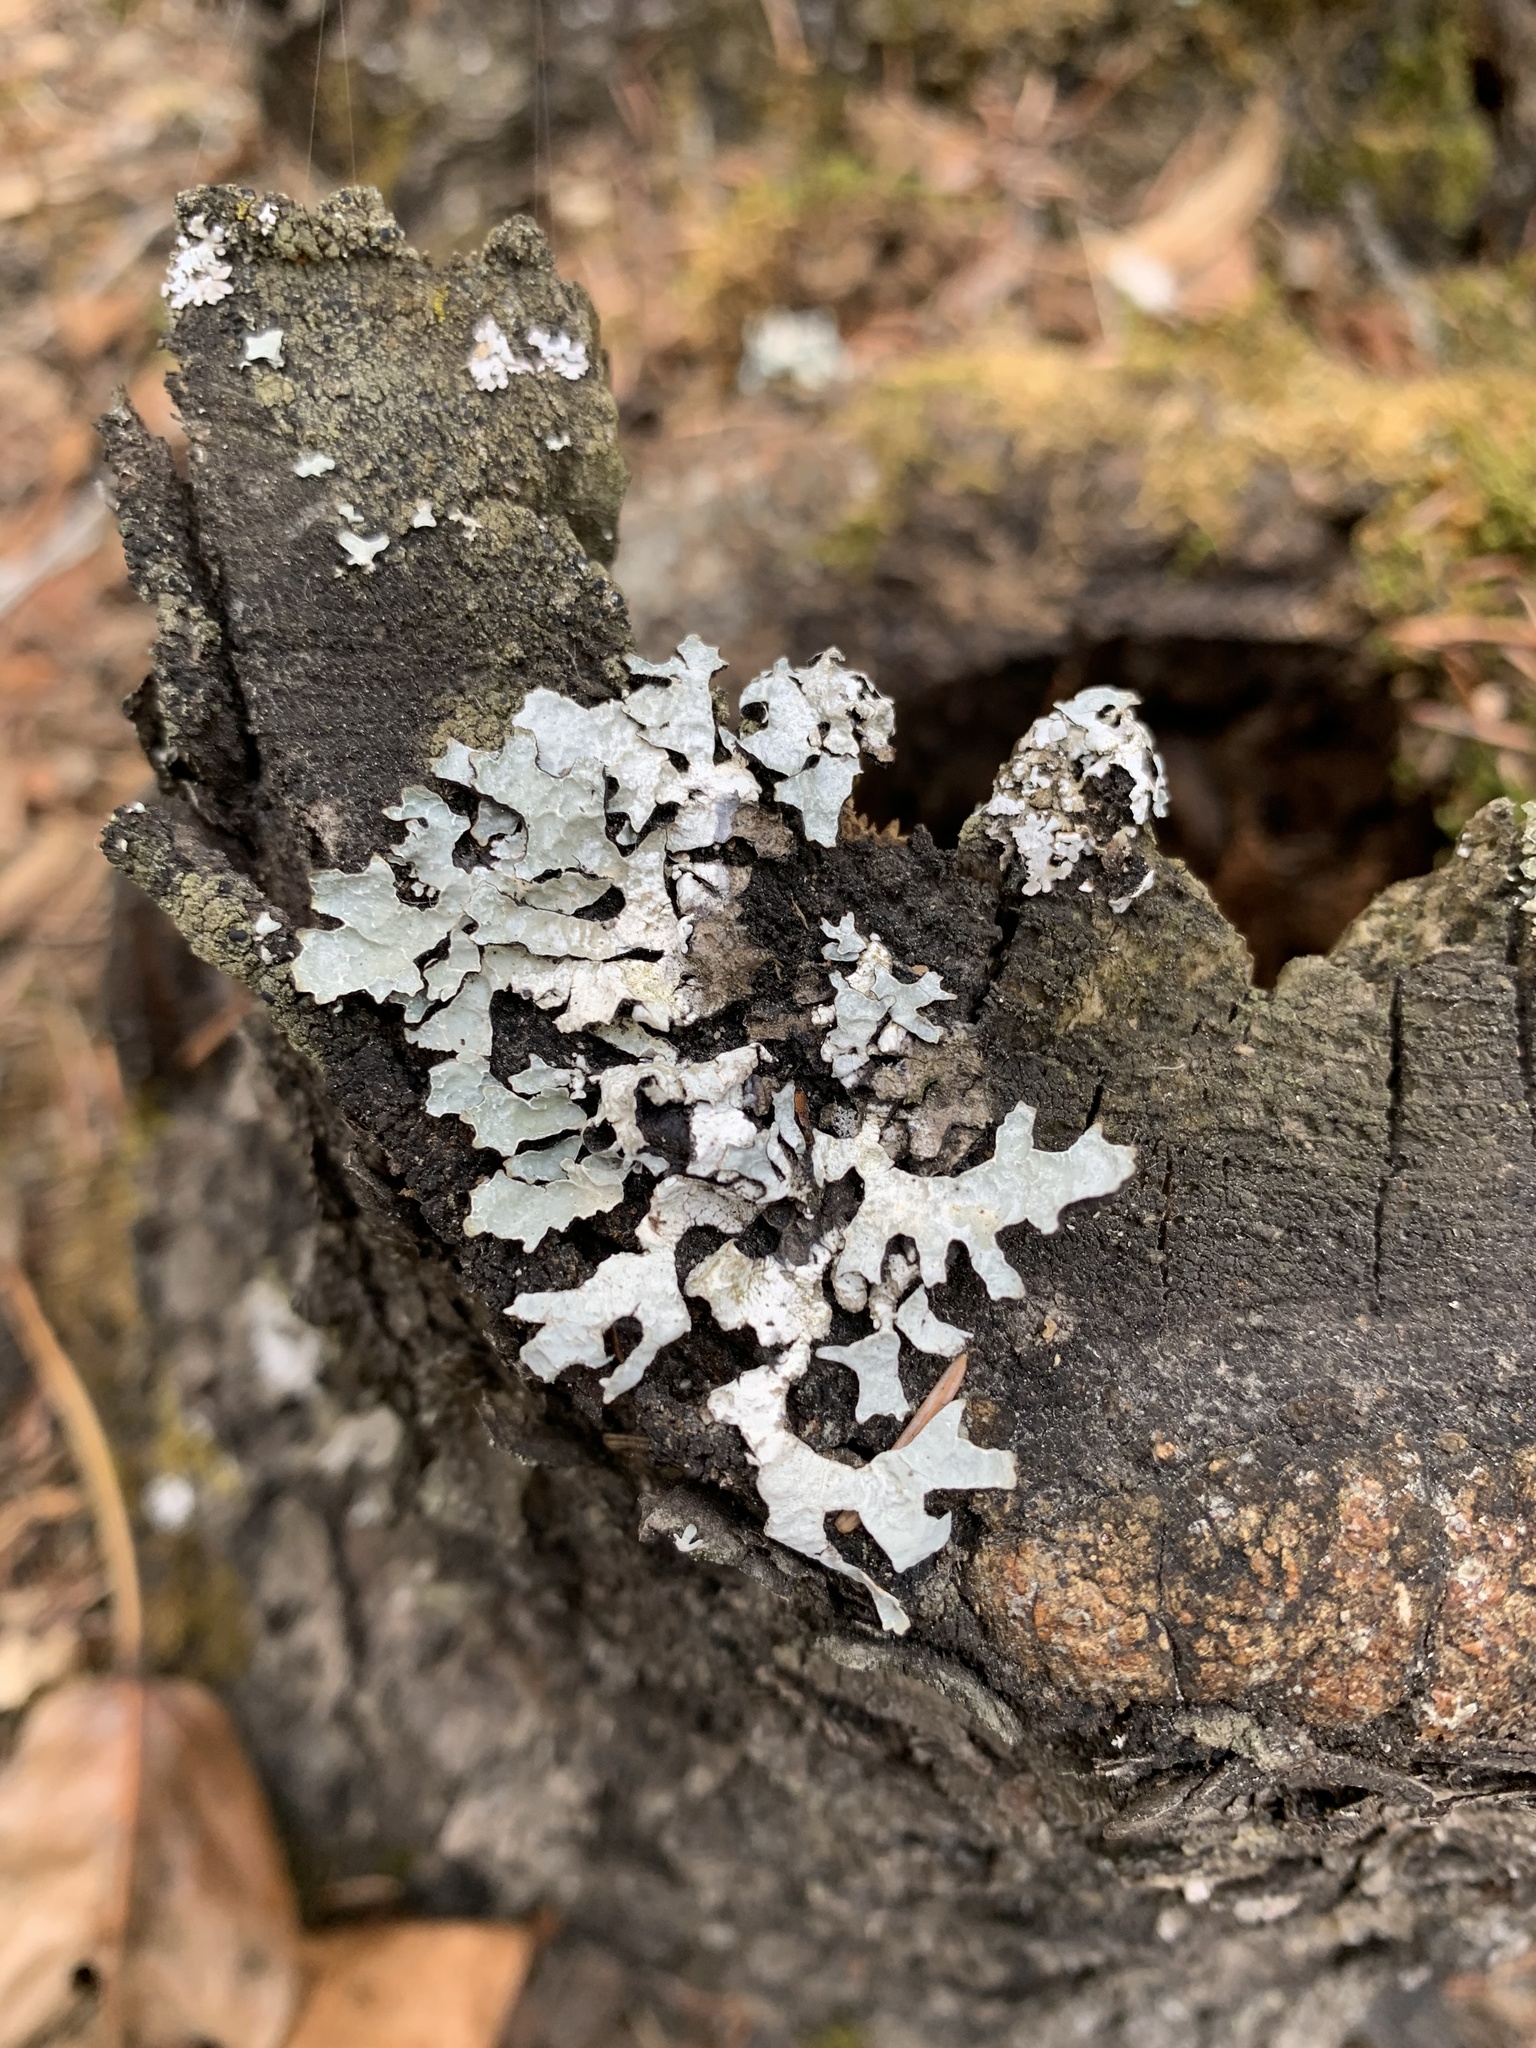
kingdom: Fungi
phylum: Ascomycota
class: Lecanoromycetes
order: Lecanorales
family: Parmeliaceae
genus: Parmelia
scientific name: Parmelia sulcata
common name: Netted shield lichen
